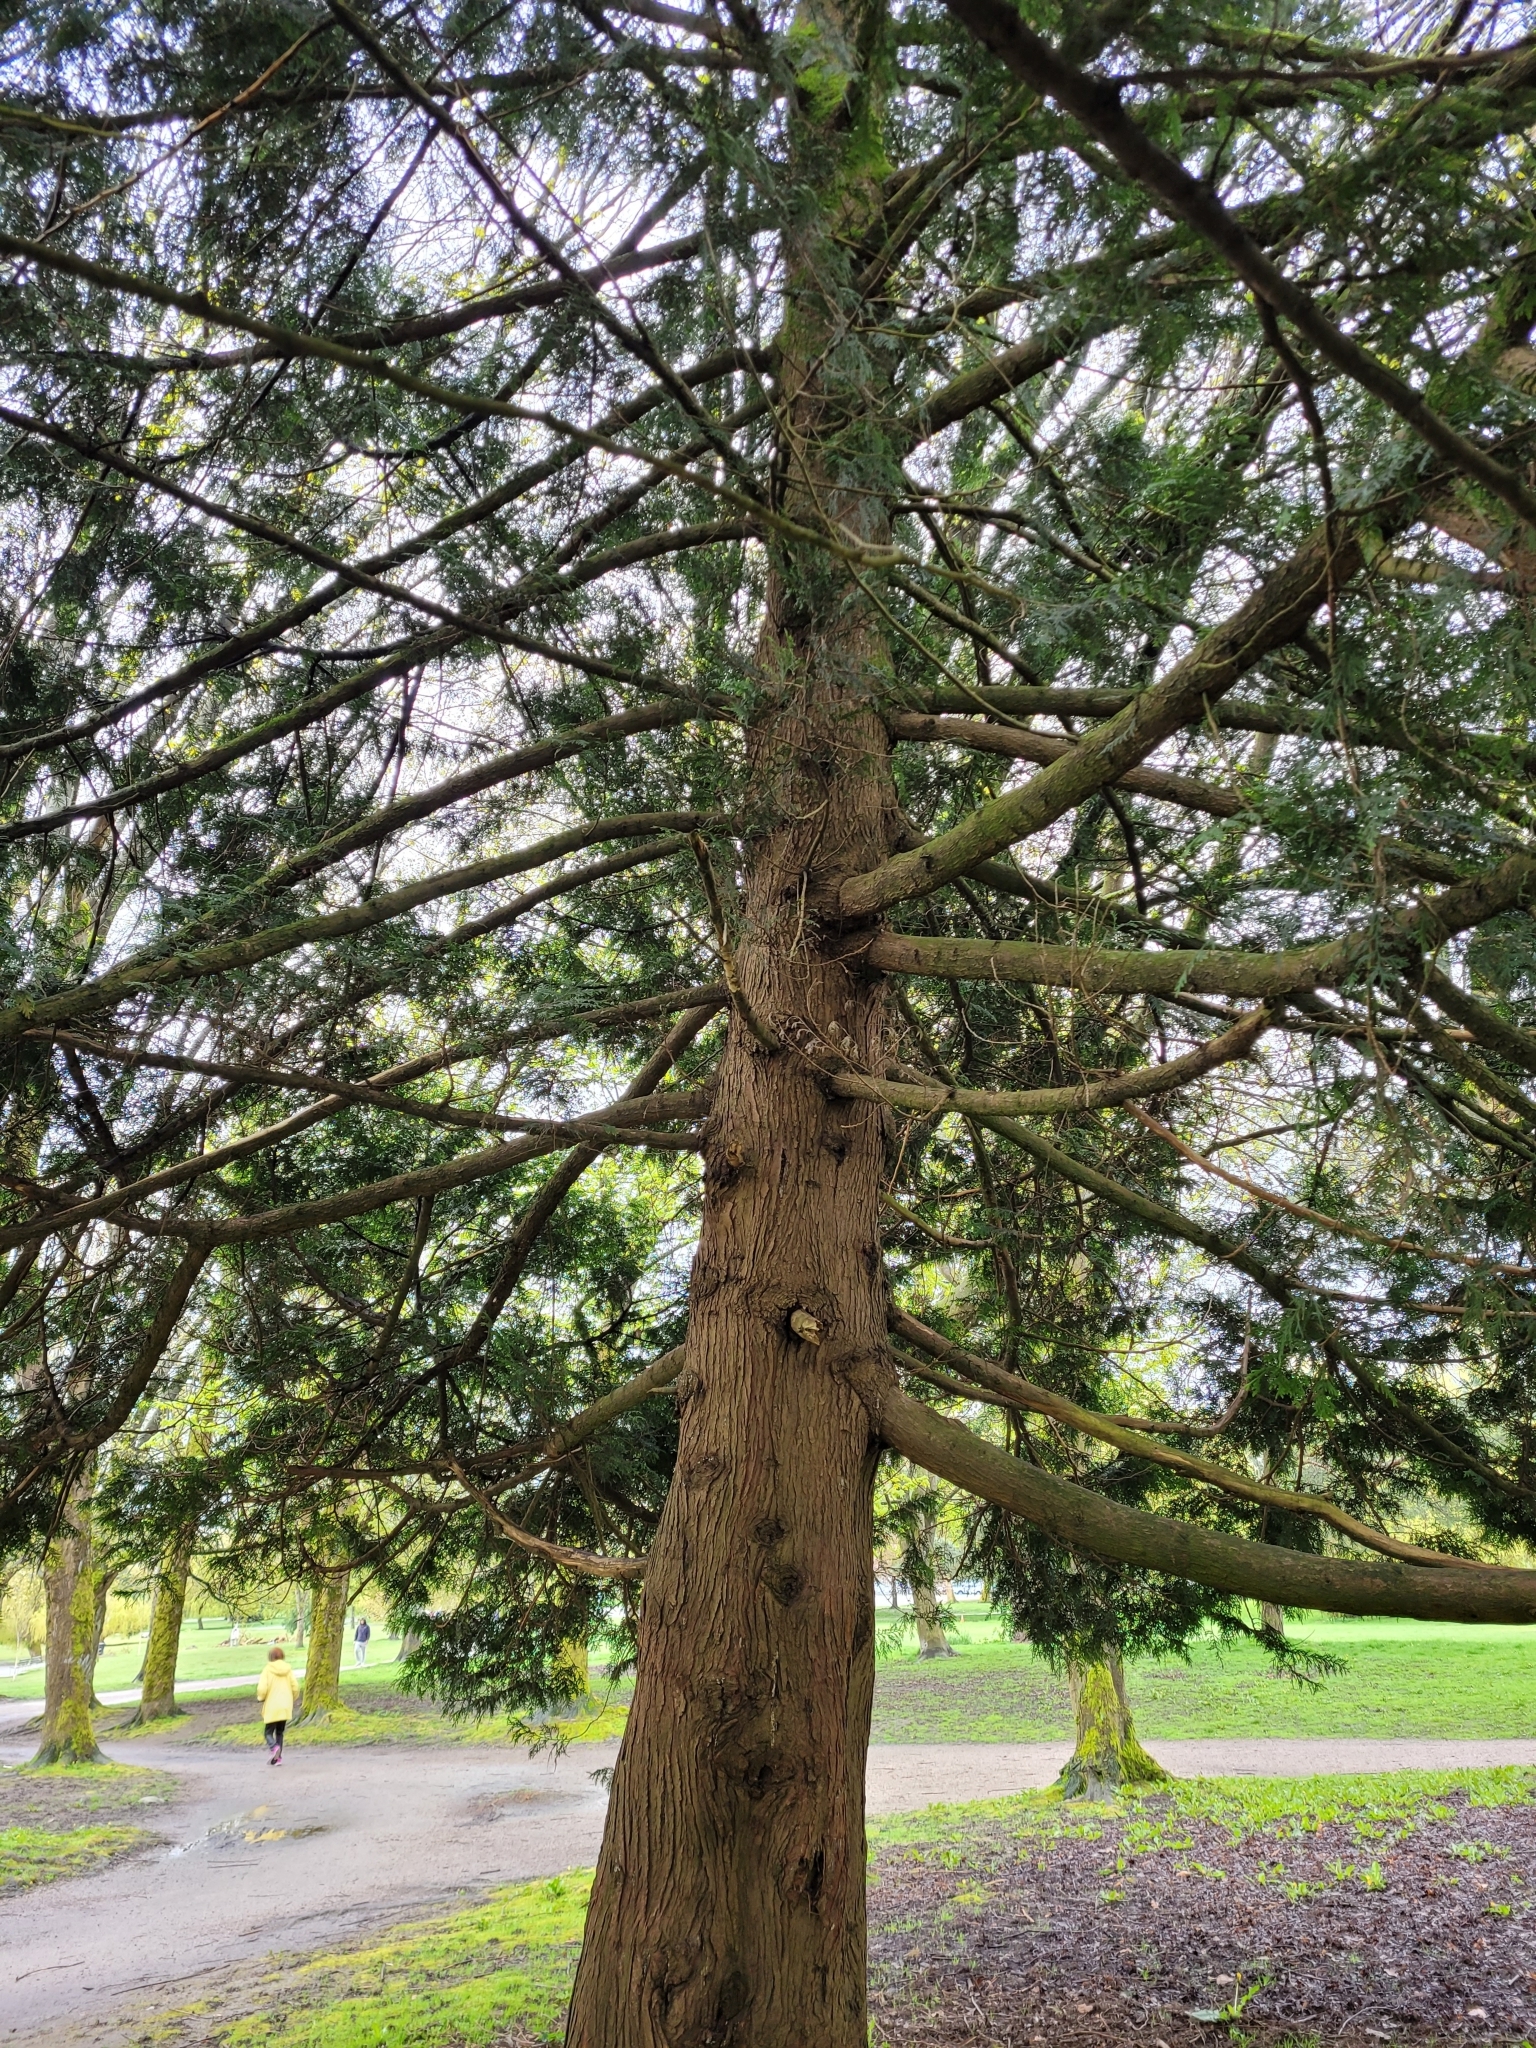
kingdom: Plantae
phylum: Tracheophyta
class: Pinopsida
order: Pinales
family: Cupressaceae
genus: Thuja
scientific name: Thuja plicata
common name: Western red-cedar
